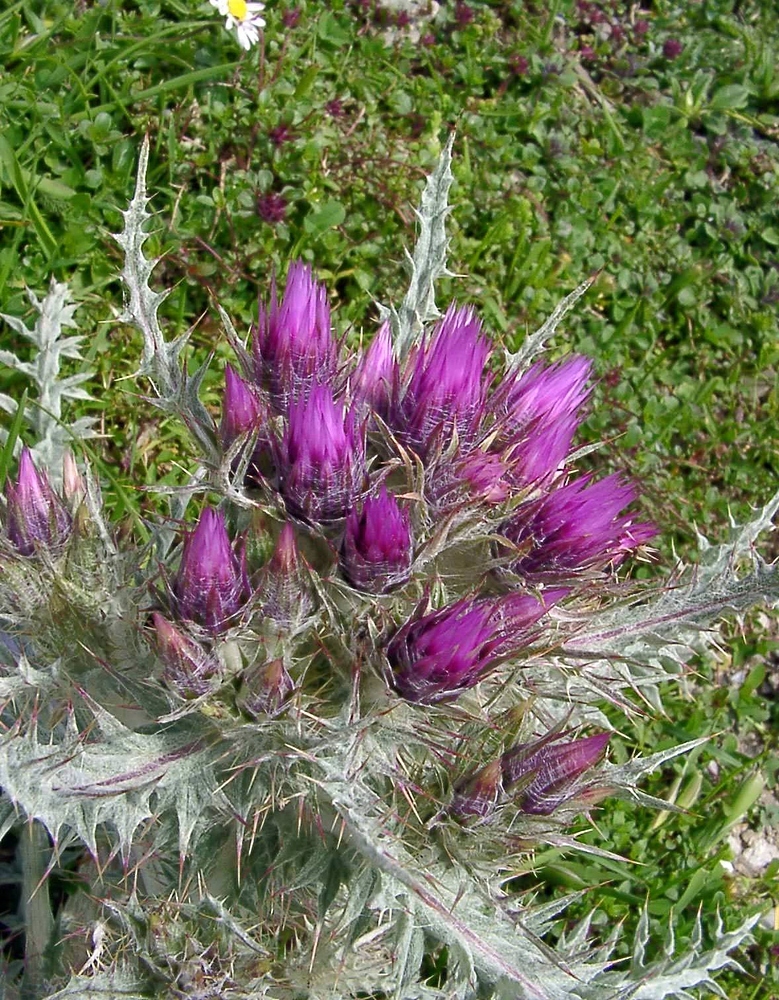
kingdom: Plantae
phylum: Tracheophyta
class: Magnoliopsida
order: Asterales
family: Asteraceae
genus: Carduus
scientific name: Carduus carlinoides
